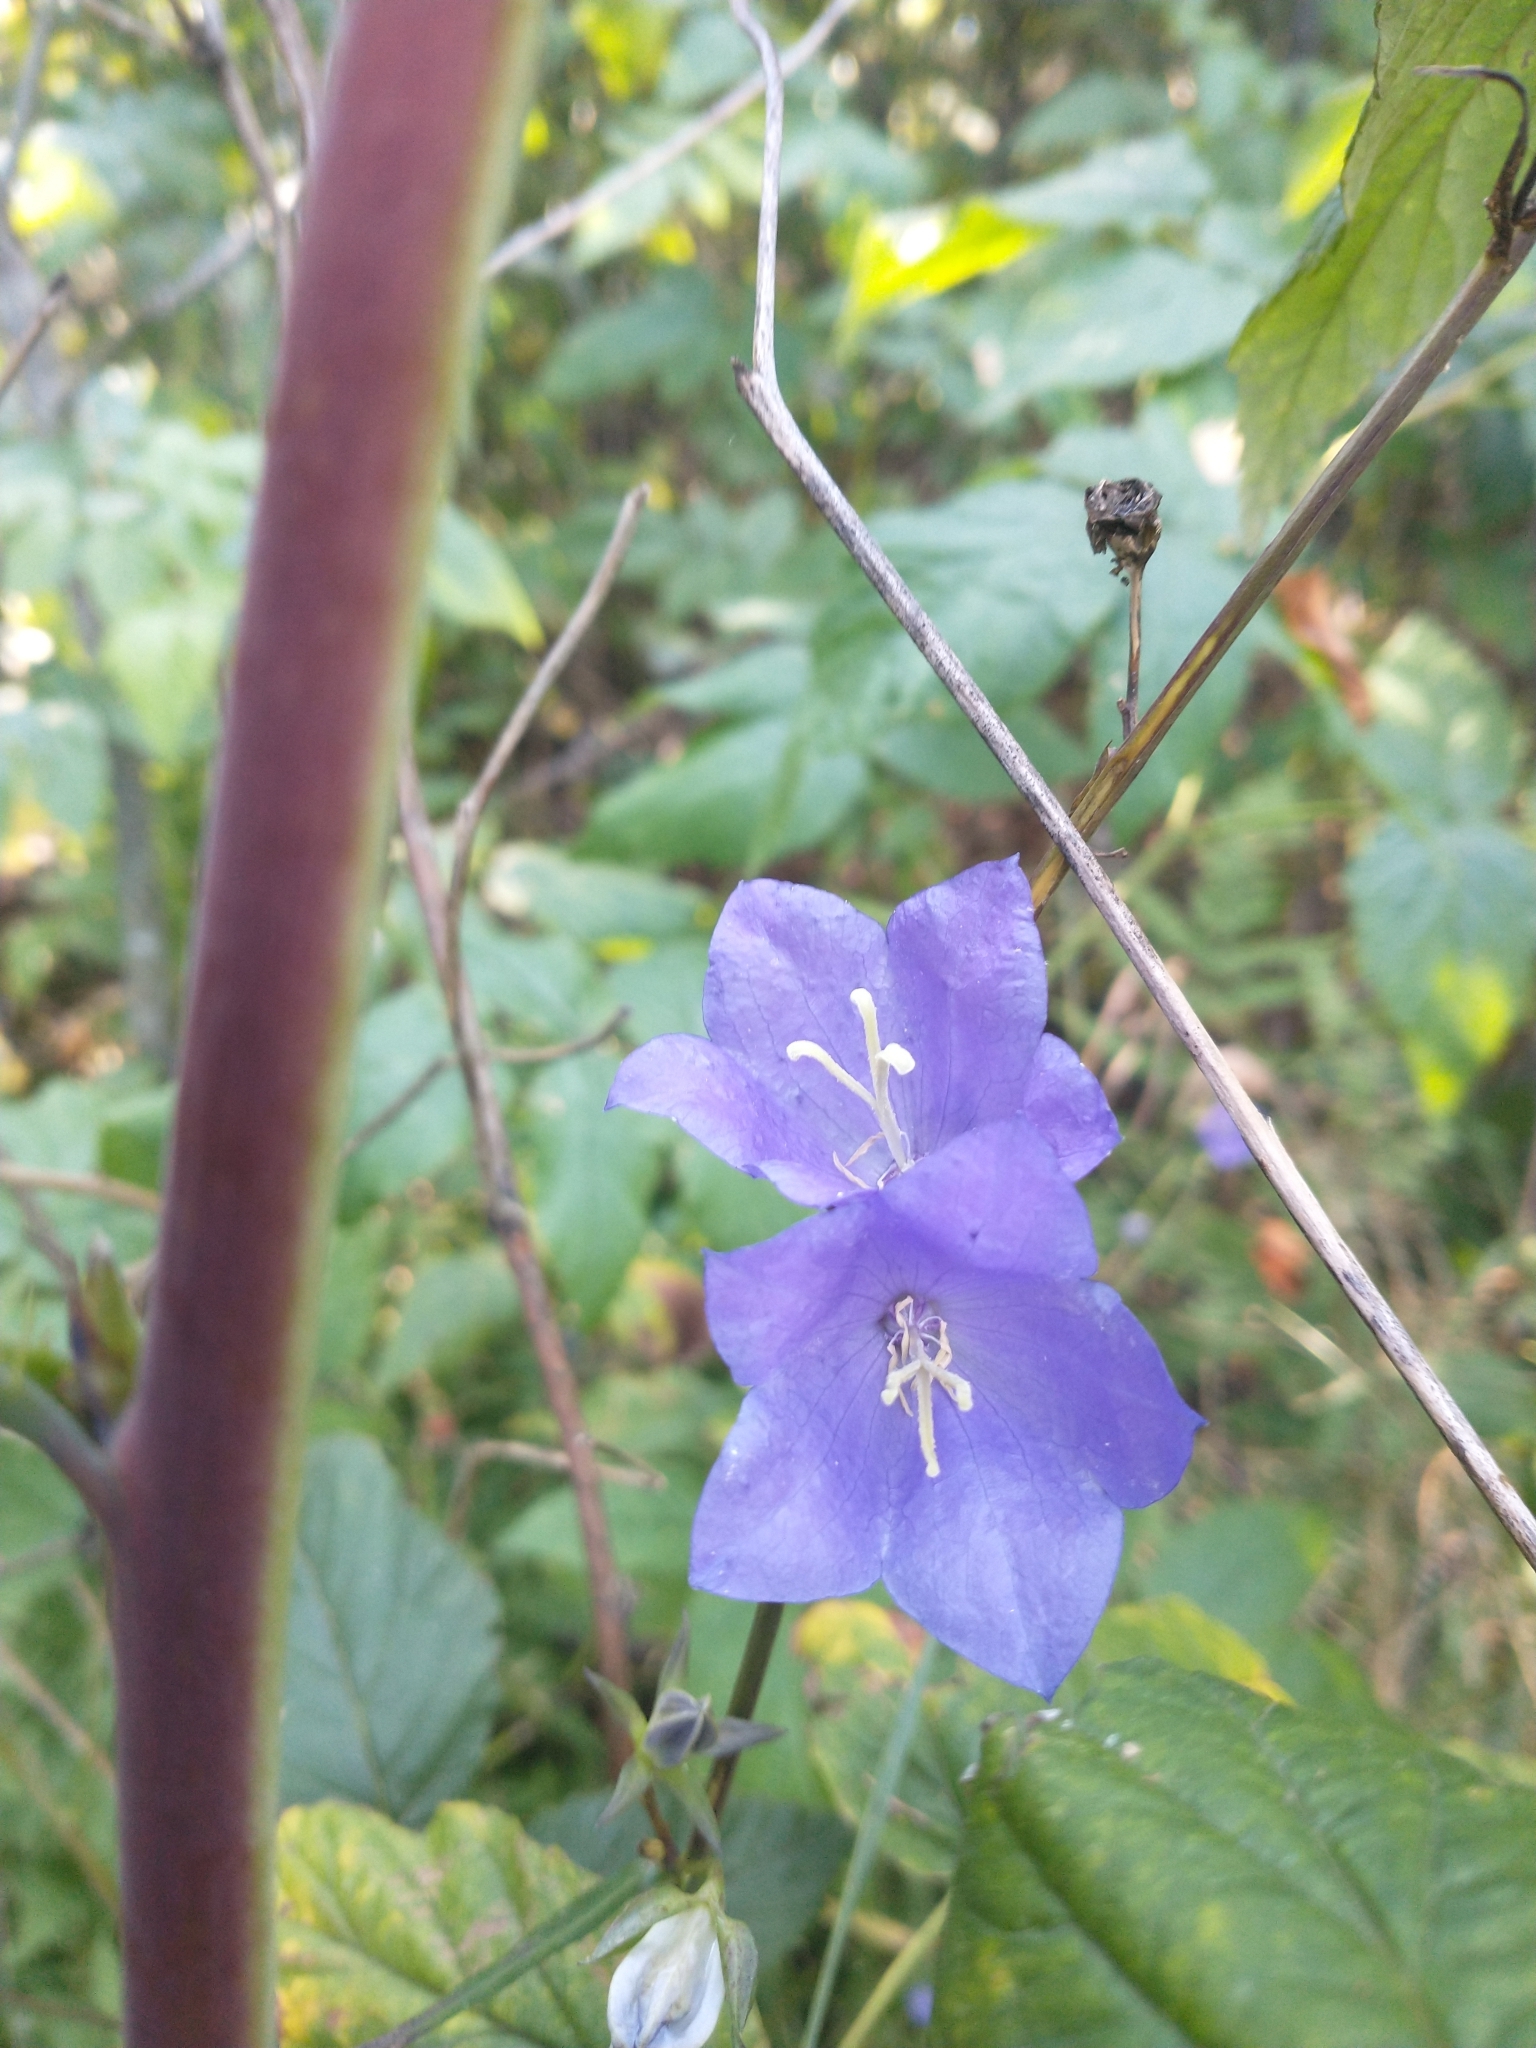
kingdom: Plantae
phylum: Tracheophyta
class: Magnoliopsida
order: Asterales
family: Campanulaceae
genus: Campanula
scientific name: Campanula persicifolia
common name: Peach-leaved bellflower
